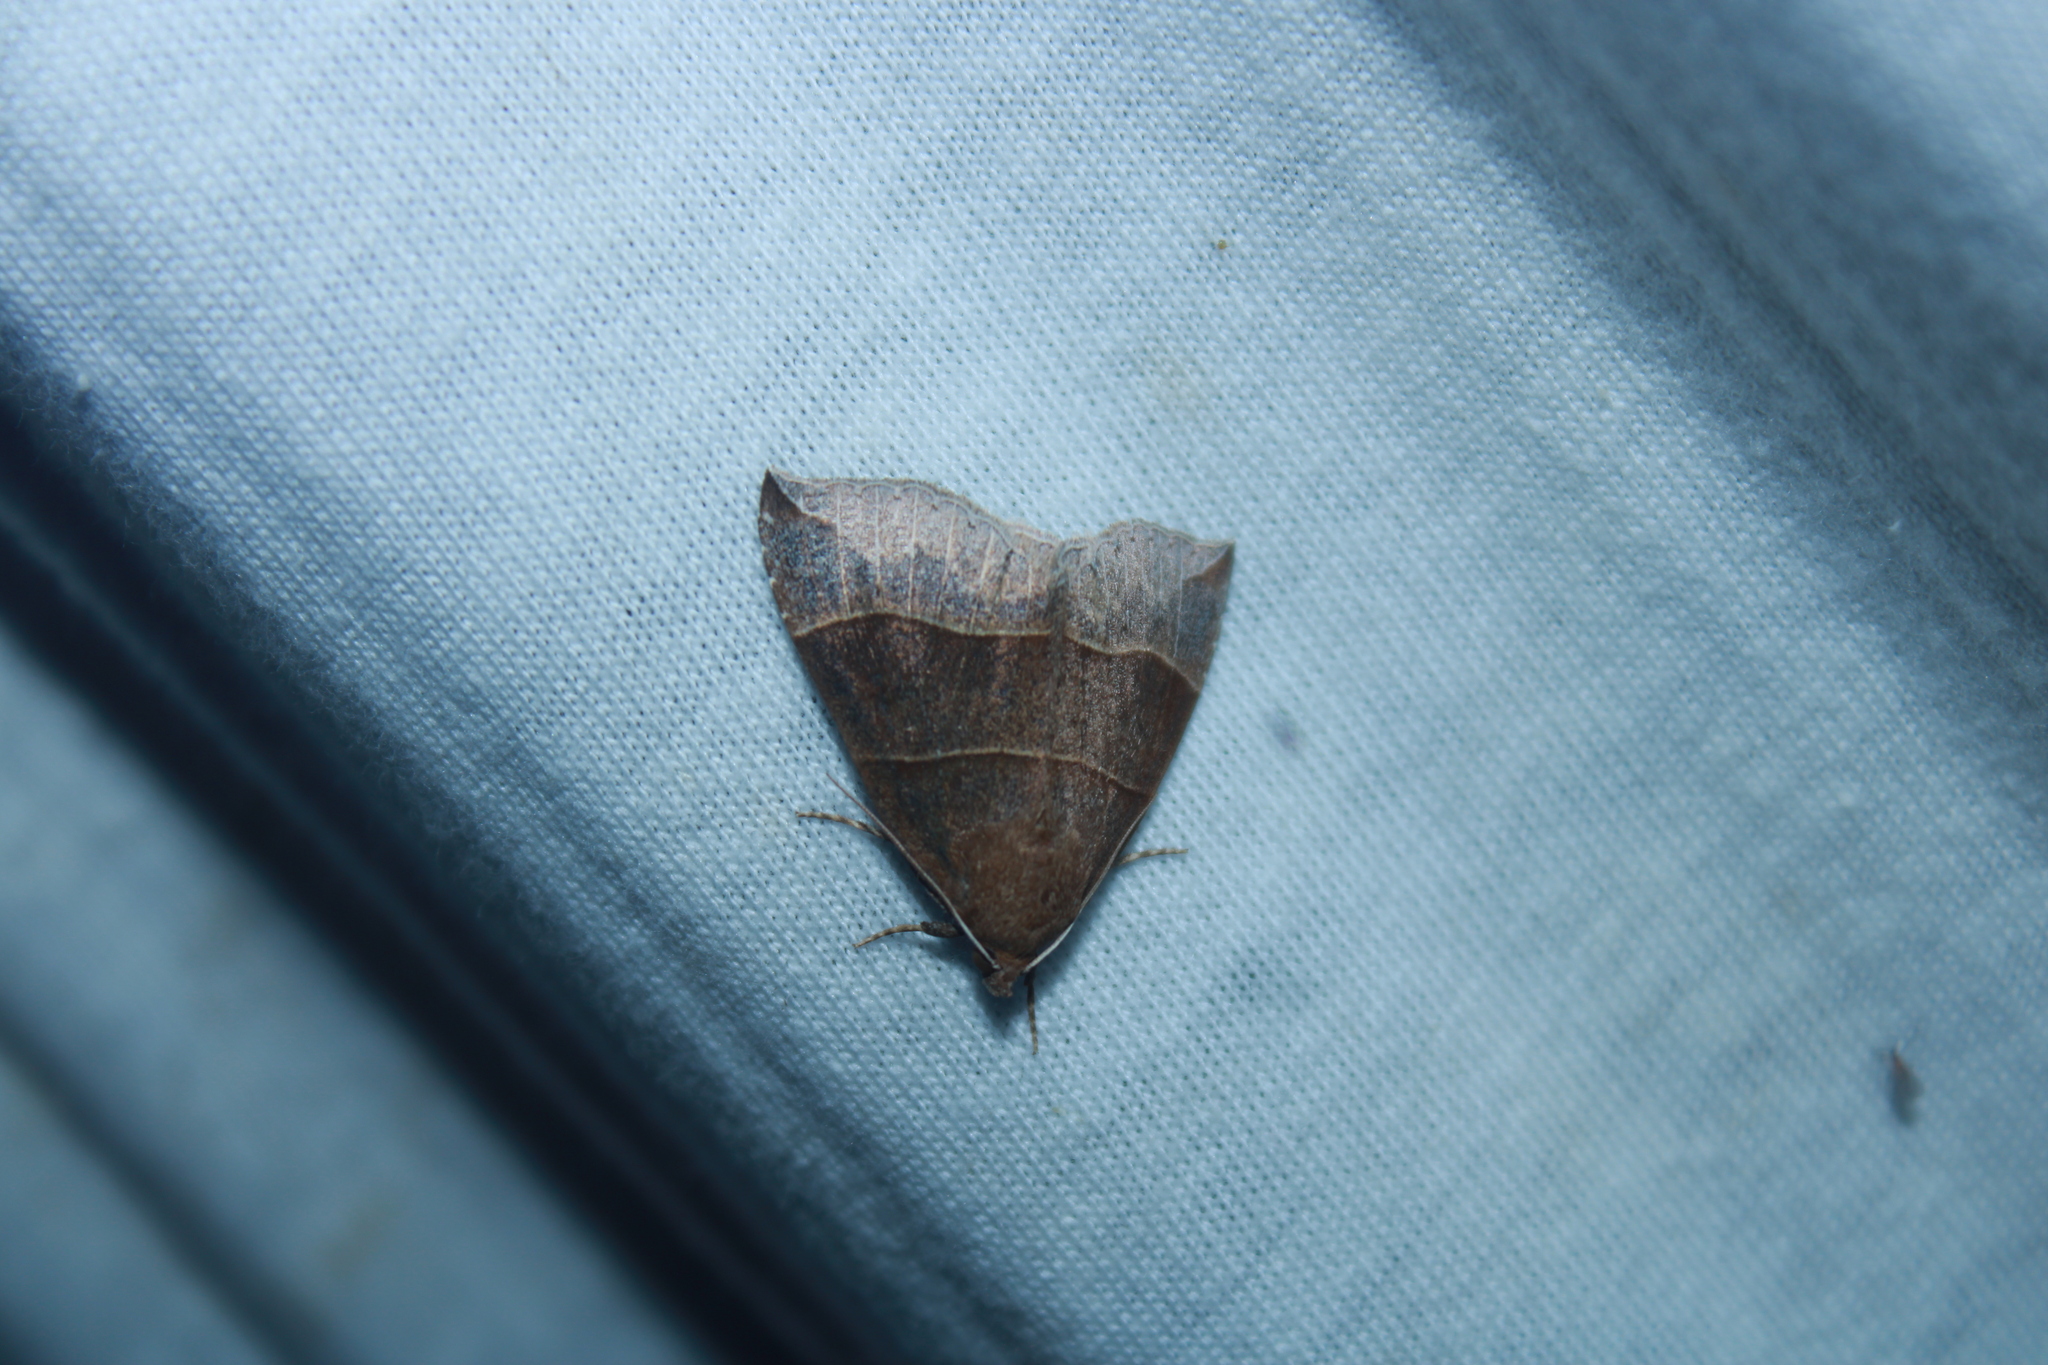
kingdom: Animalia
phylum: Arthropoda
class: Insecta
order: Lepidoptera
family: Erebidae
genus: Parallelia
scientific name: Parallelia bistriaris
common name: Maple looper moth
